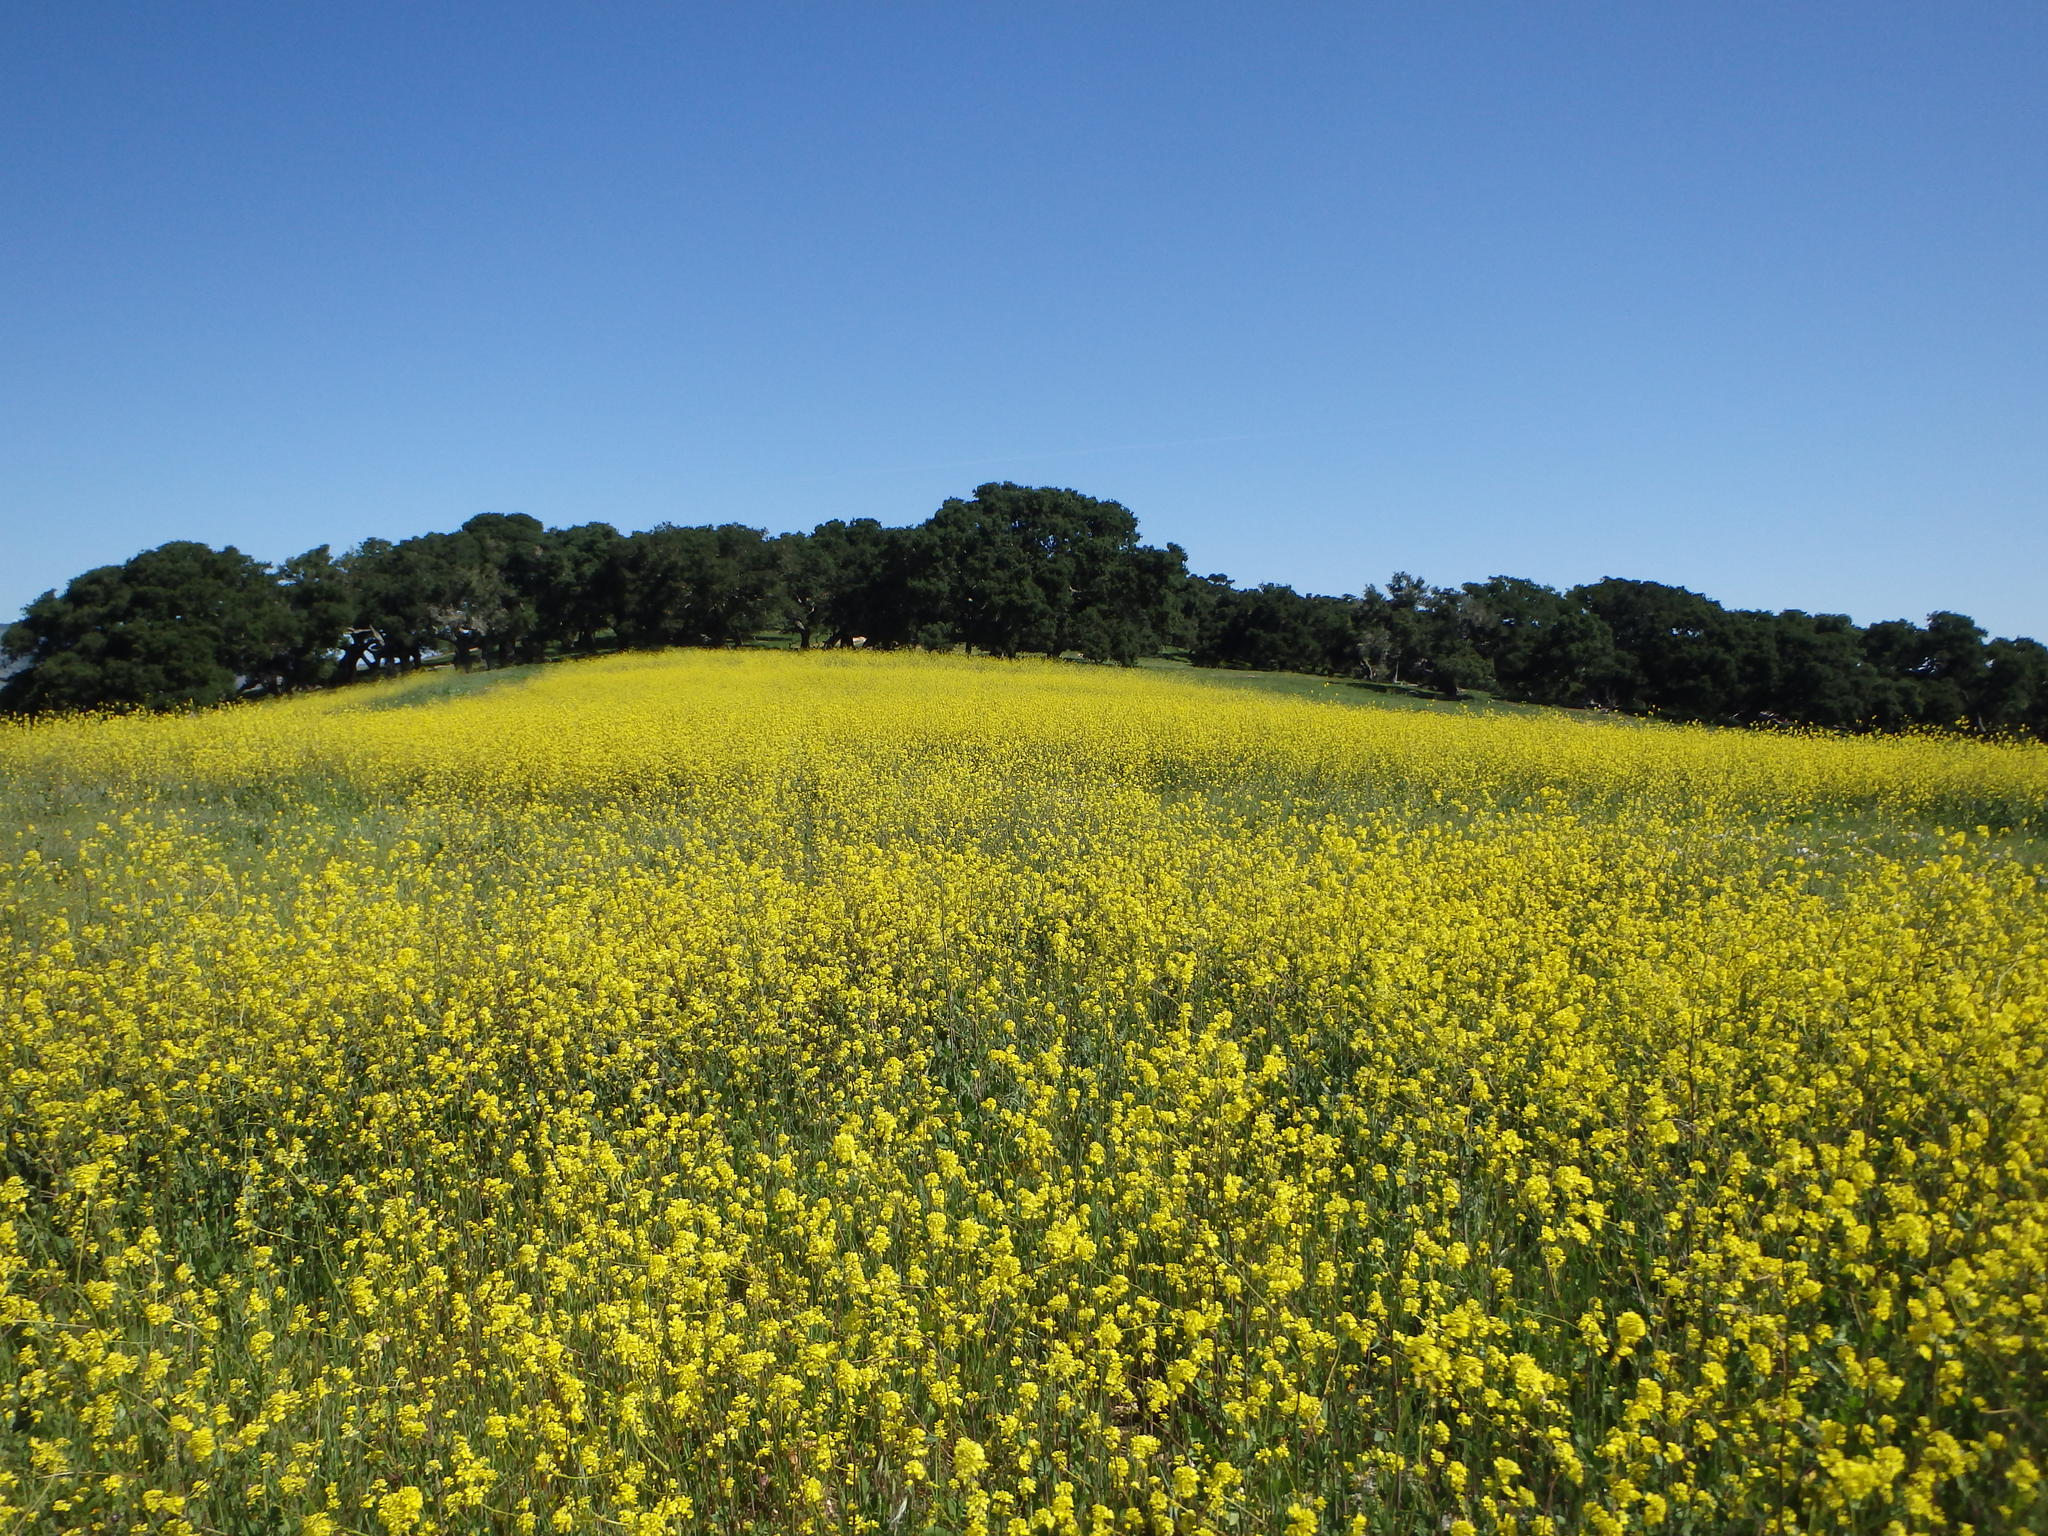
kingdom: Plantae
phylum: Tracheophyta
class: Magnoliopsida
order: Brassicales
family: Brassicaceae
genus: Brassica
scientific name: Brassica nigra
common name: Black mustard
